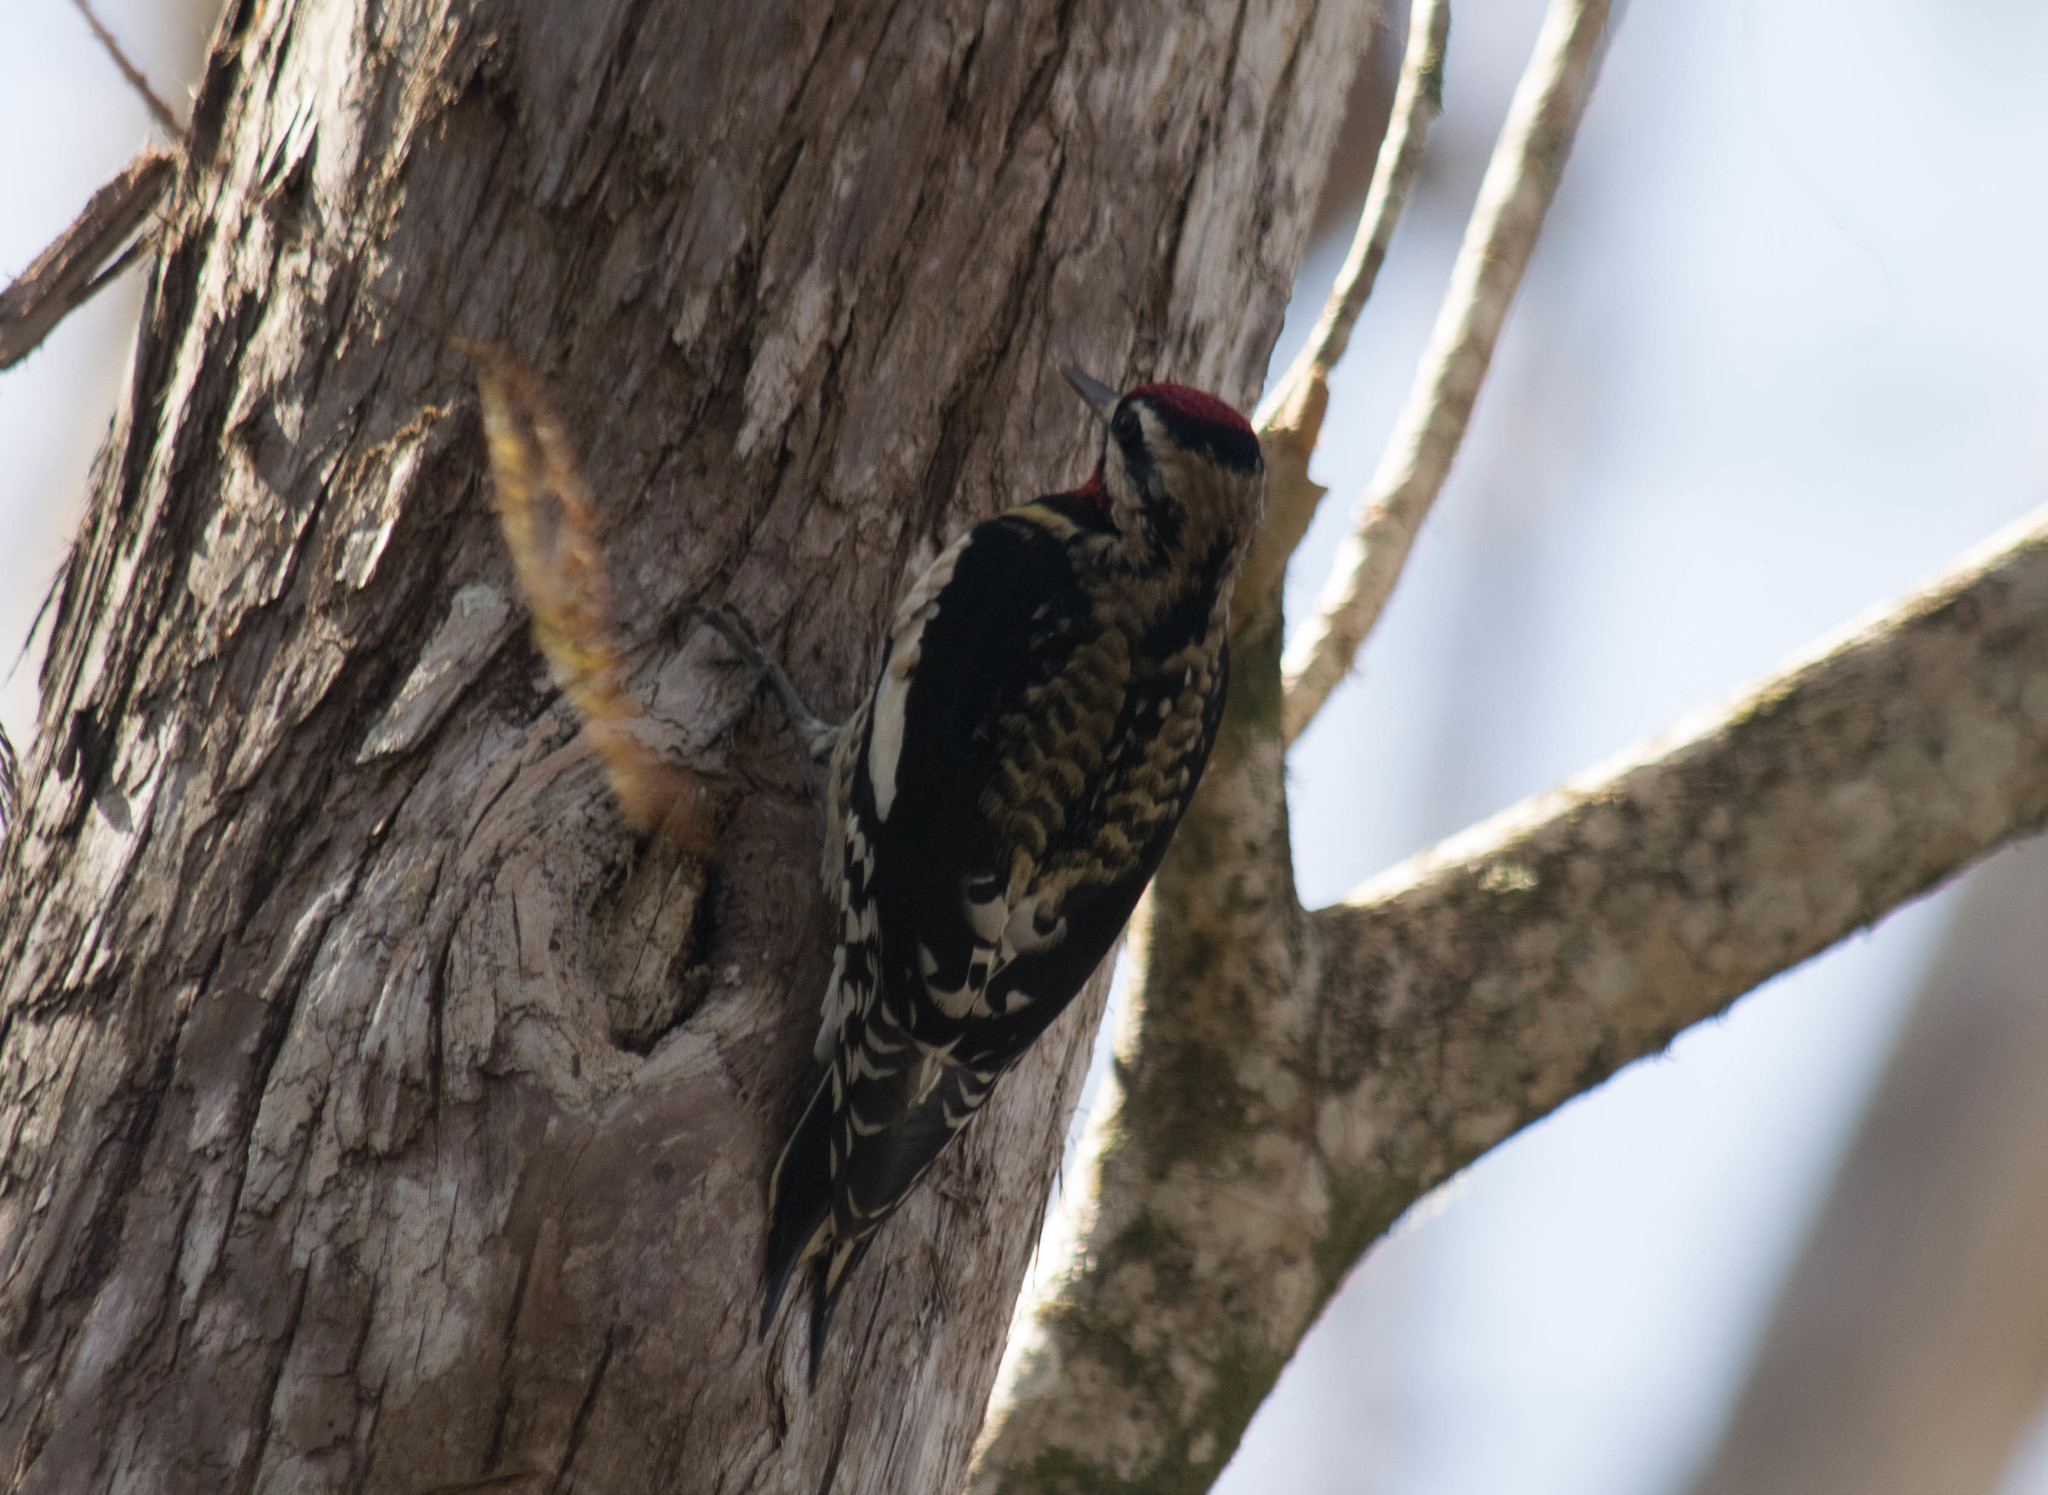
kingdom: Animalia
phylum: Chordata
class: Aves
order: Piciformes
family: Picidae
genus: Sphyrapicus
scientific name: Sphyrapicus varius
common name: Yellow-bellied sapsucker
